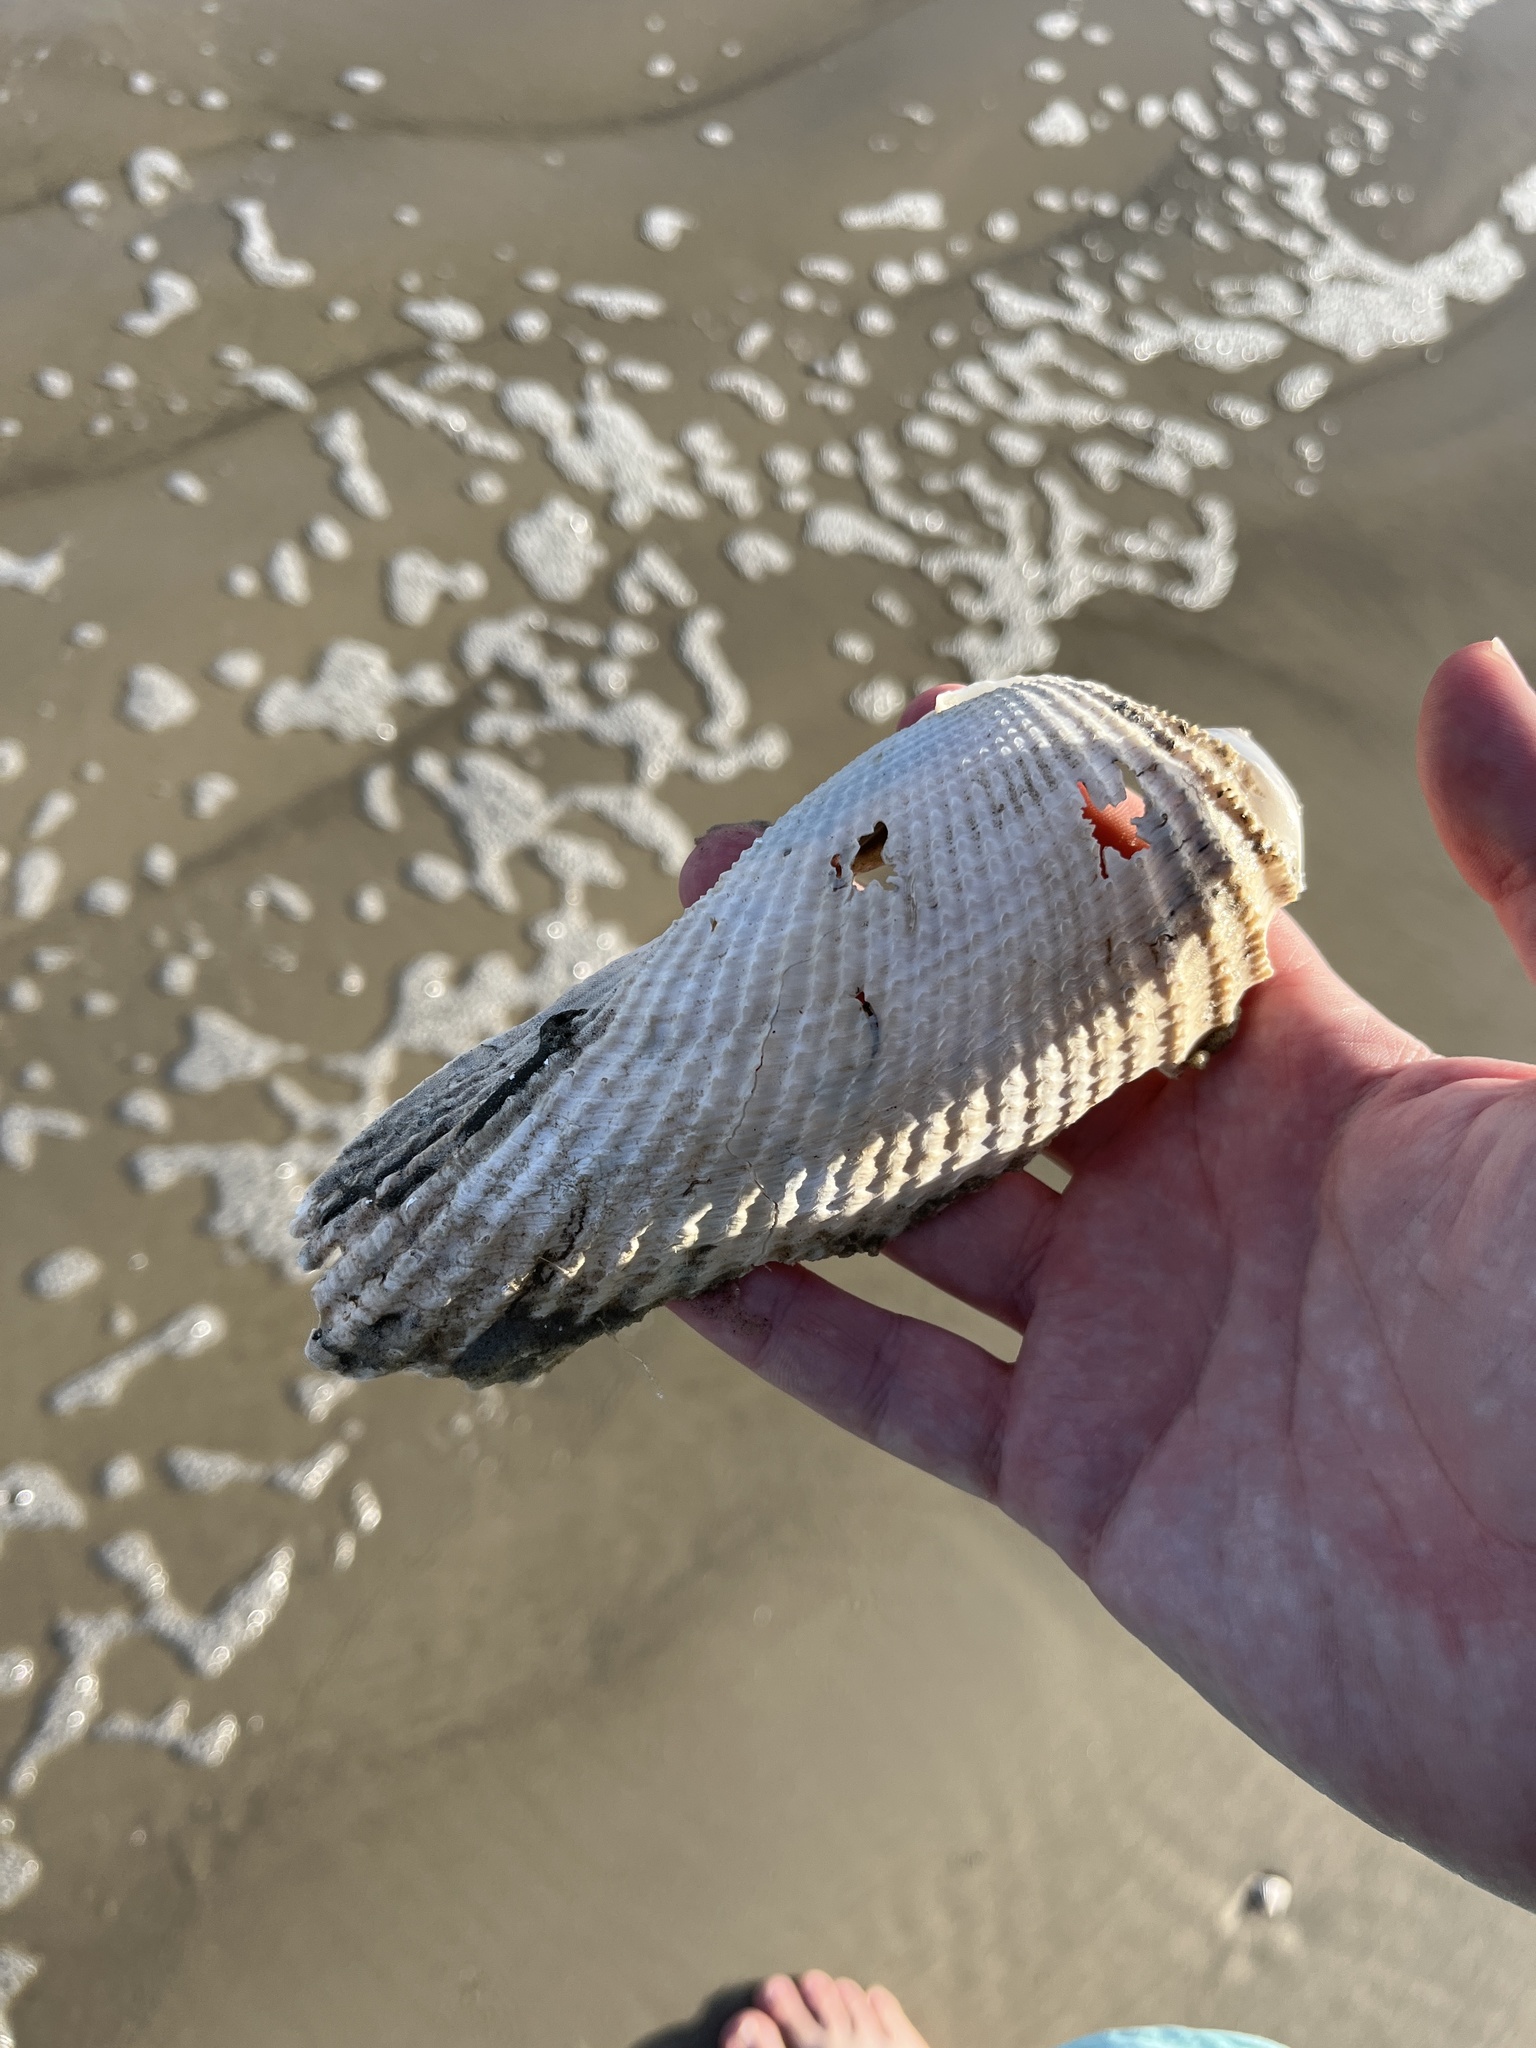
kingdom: Animalia
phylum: Mollusca
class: Bivalvia
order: Myida
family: Pholadidae
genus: Cyrtopleura
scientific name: Cyrtopleura costata
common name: Angel wing
